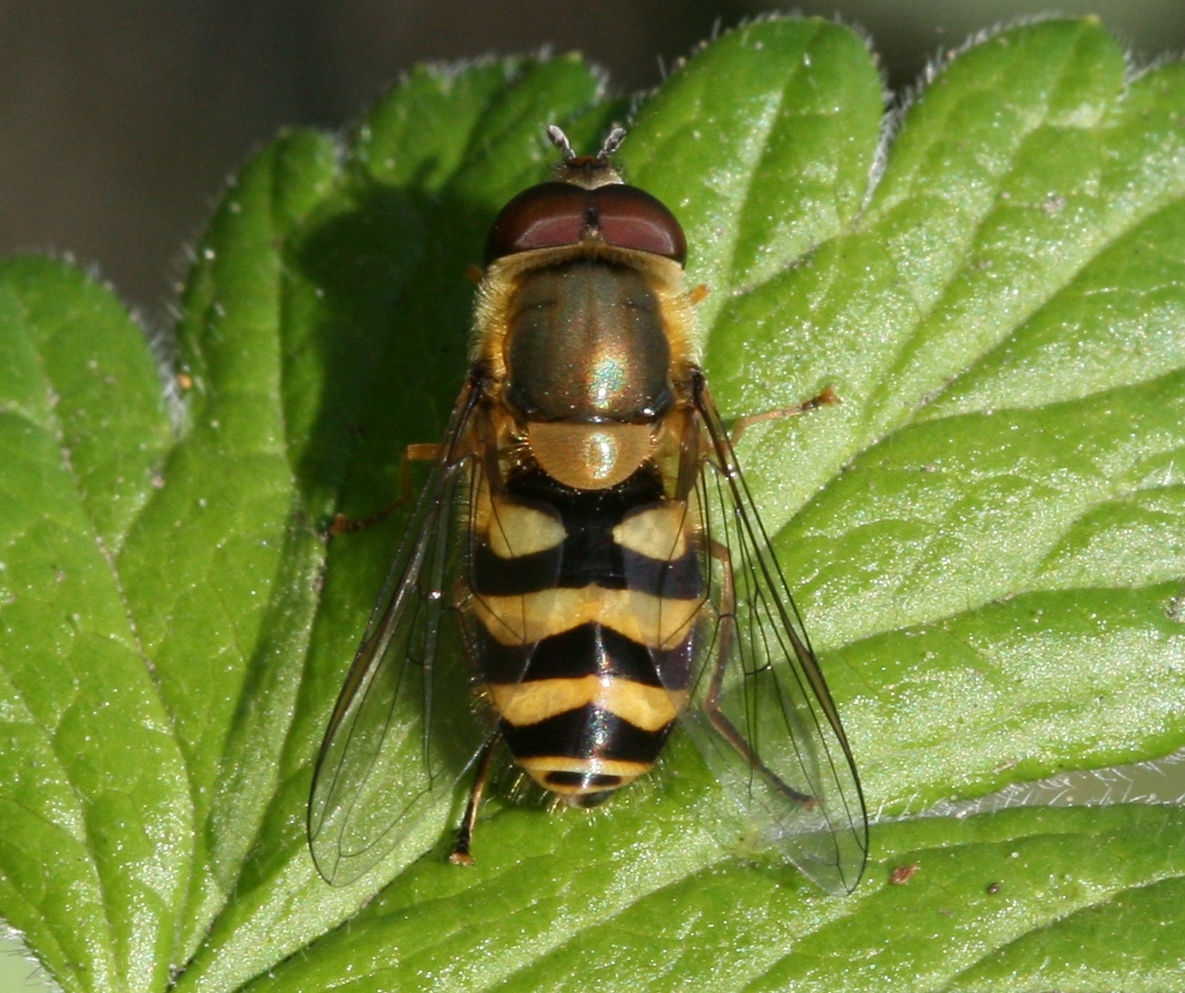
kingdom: Animalia
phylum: Arthropoda
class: Insecta
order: Diptera
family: Syrphidae
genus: Syrphus
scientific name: Syrphus
